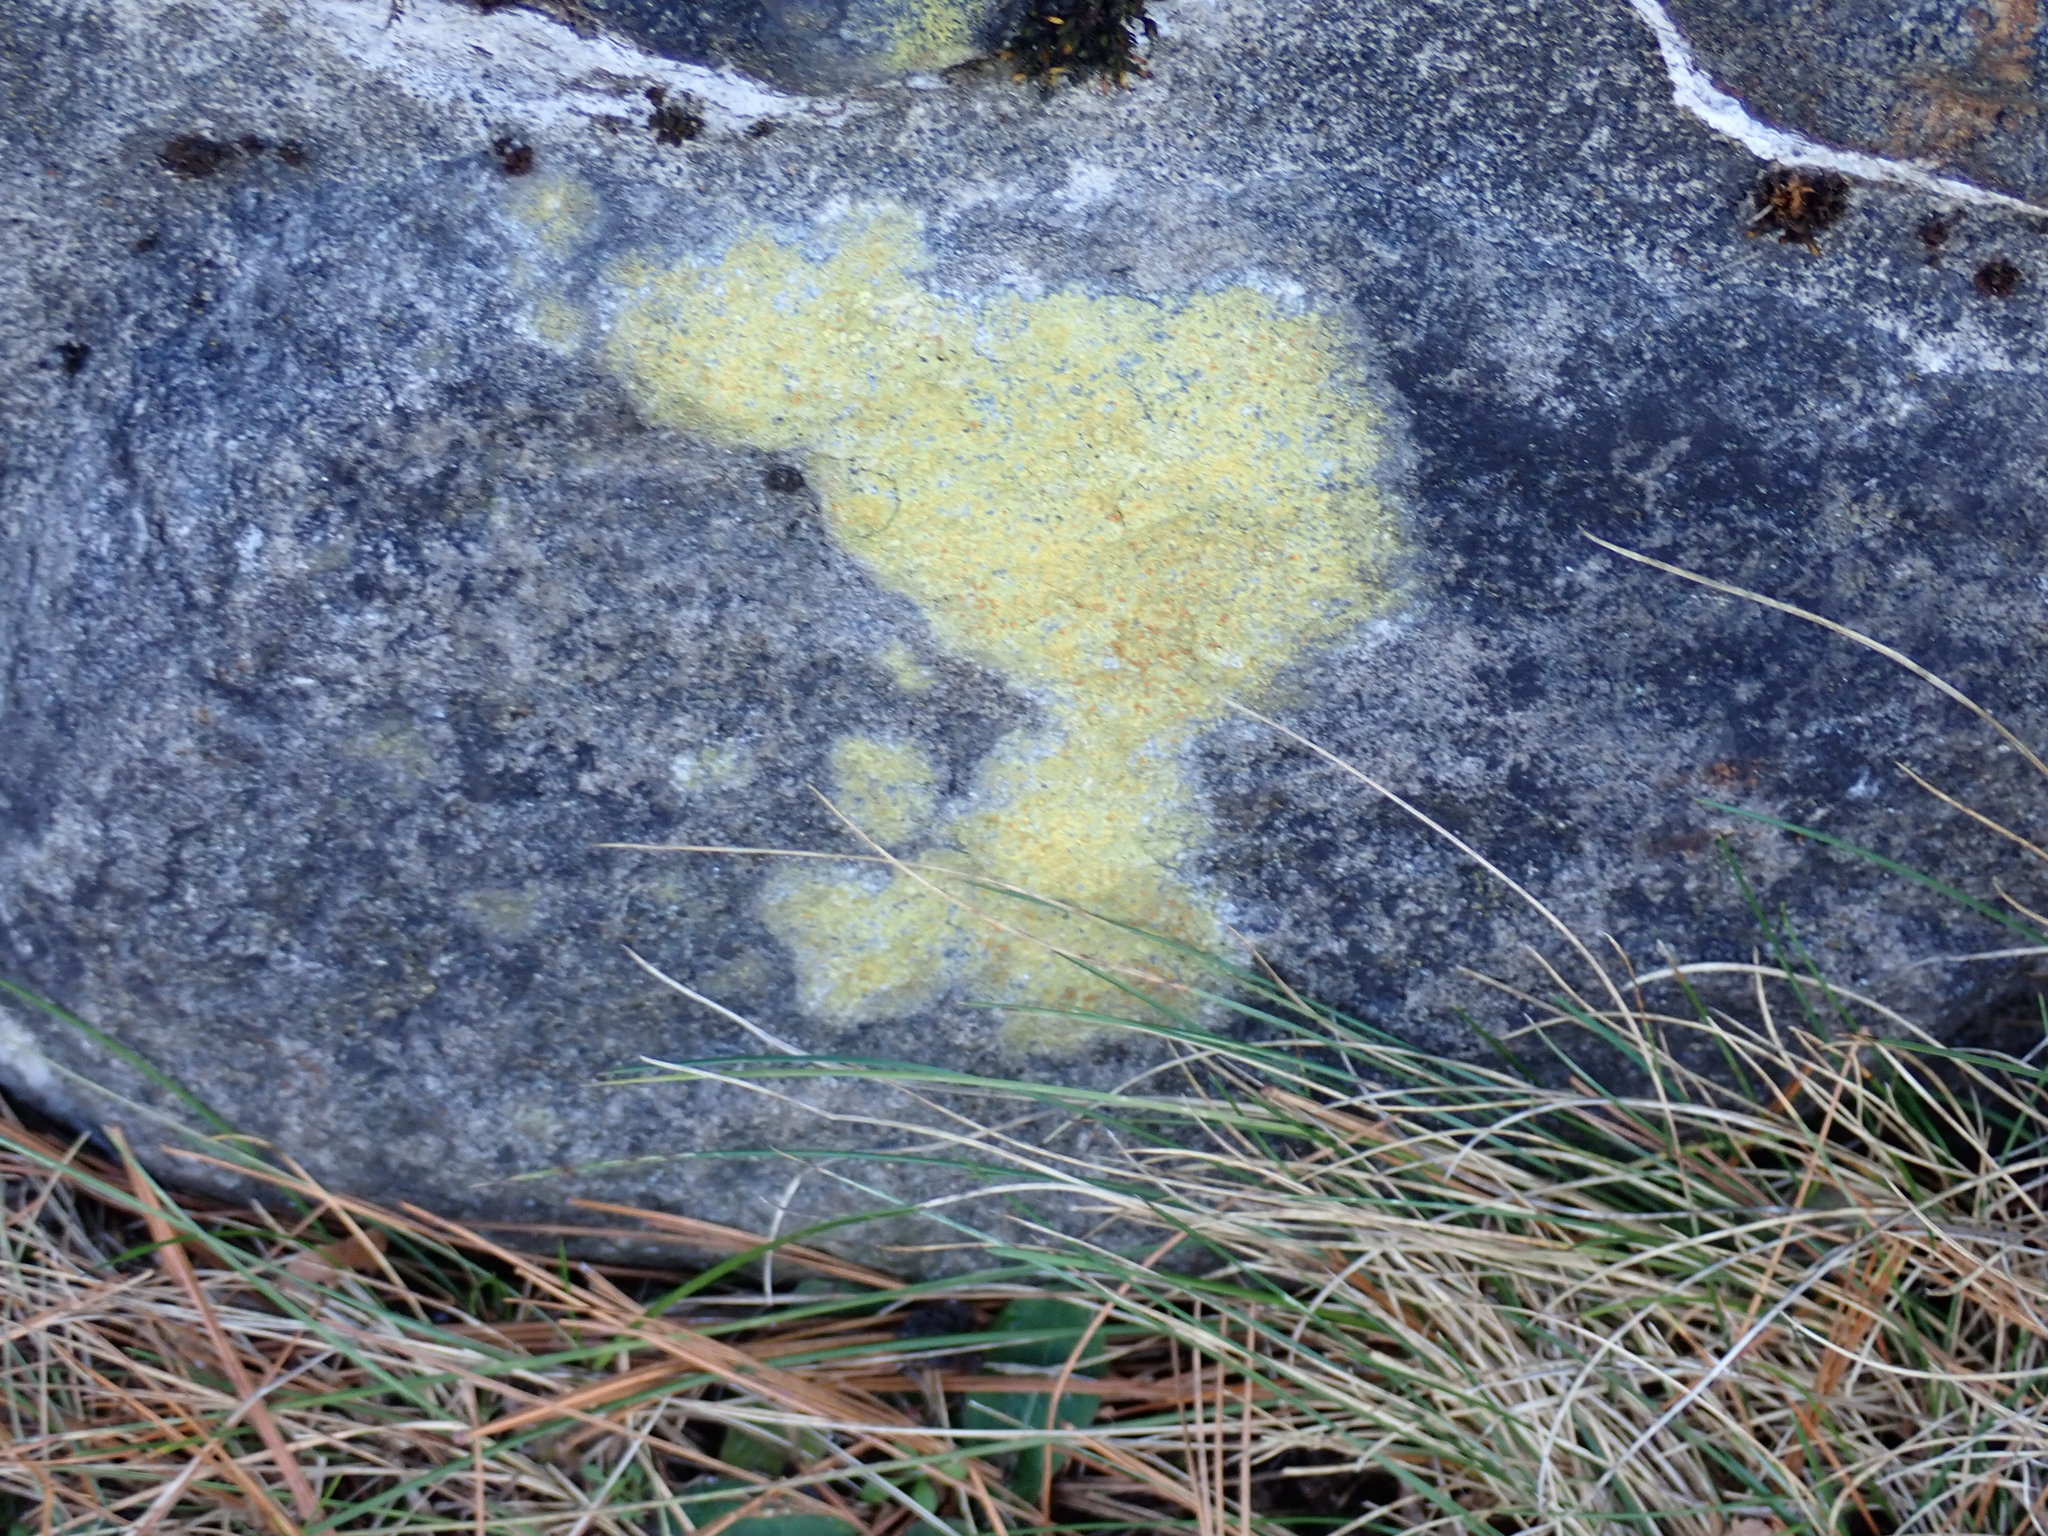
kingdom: Fungi
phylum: Ascomycota
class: Lecanoromycetes
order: Teloschistales
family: Teloschistaceae
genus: Gyalolechia
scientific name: Gyalolechia flavovirescens
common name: Sulphur firedot
